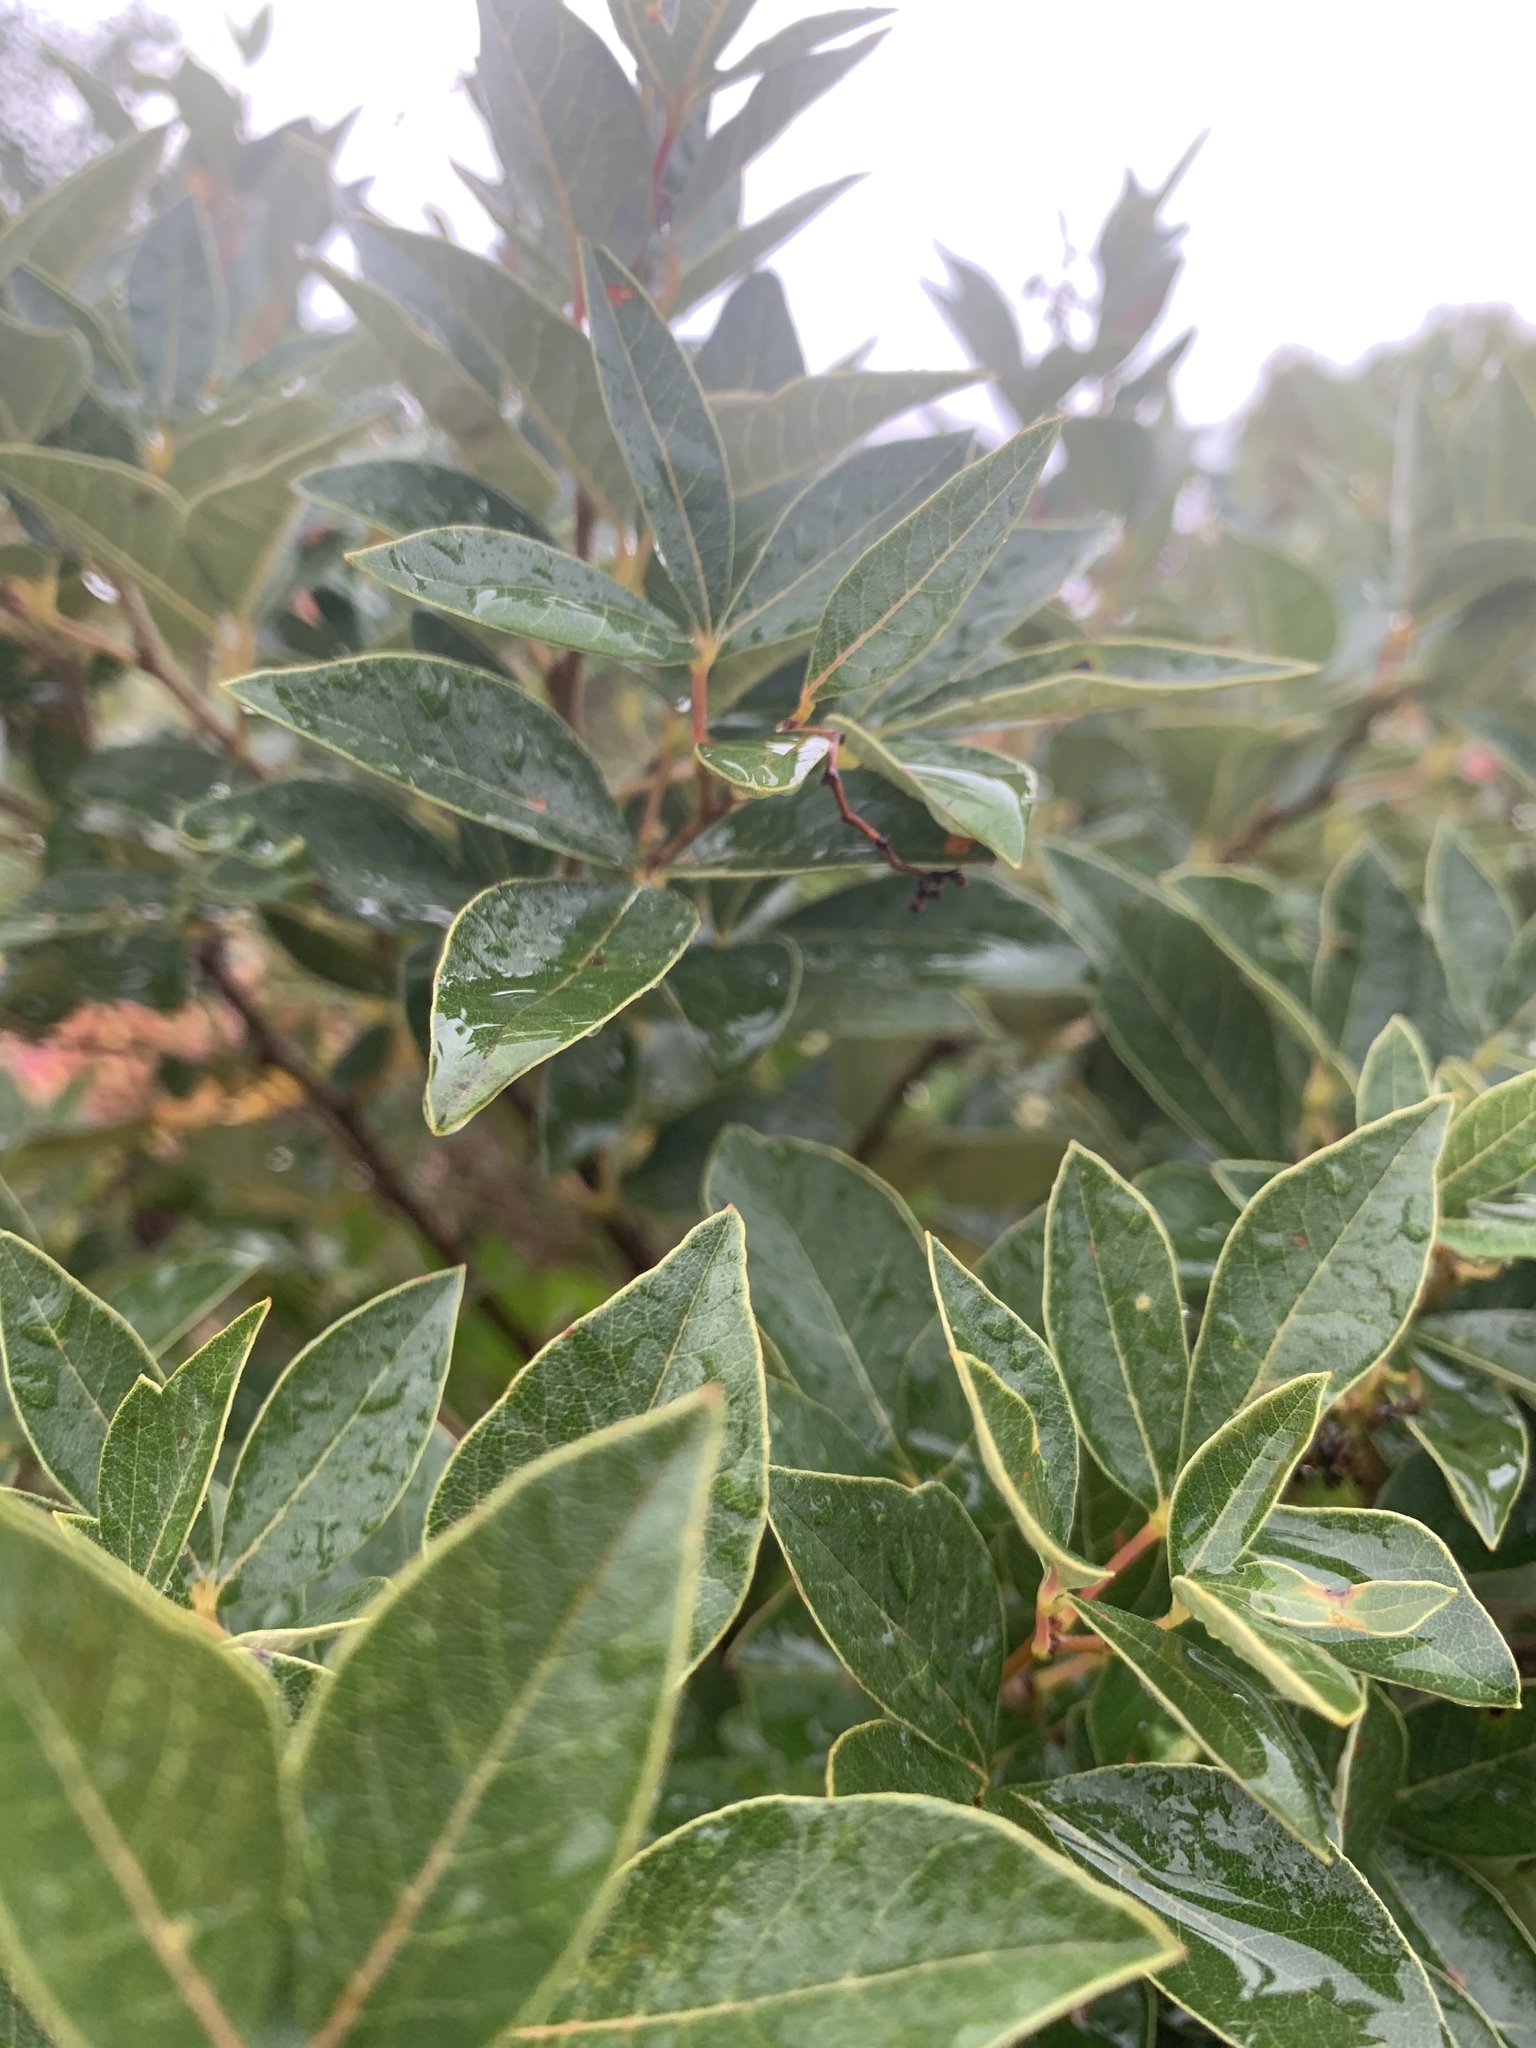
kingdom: Plantae
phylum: Tracheophyta
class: Magnoliopsida
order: Sapindales
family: Anacardiaceae
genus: Searsia
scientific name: Searsia tomentosa
